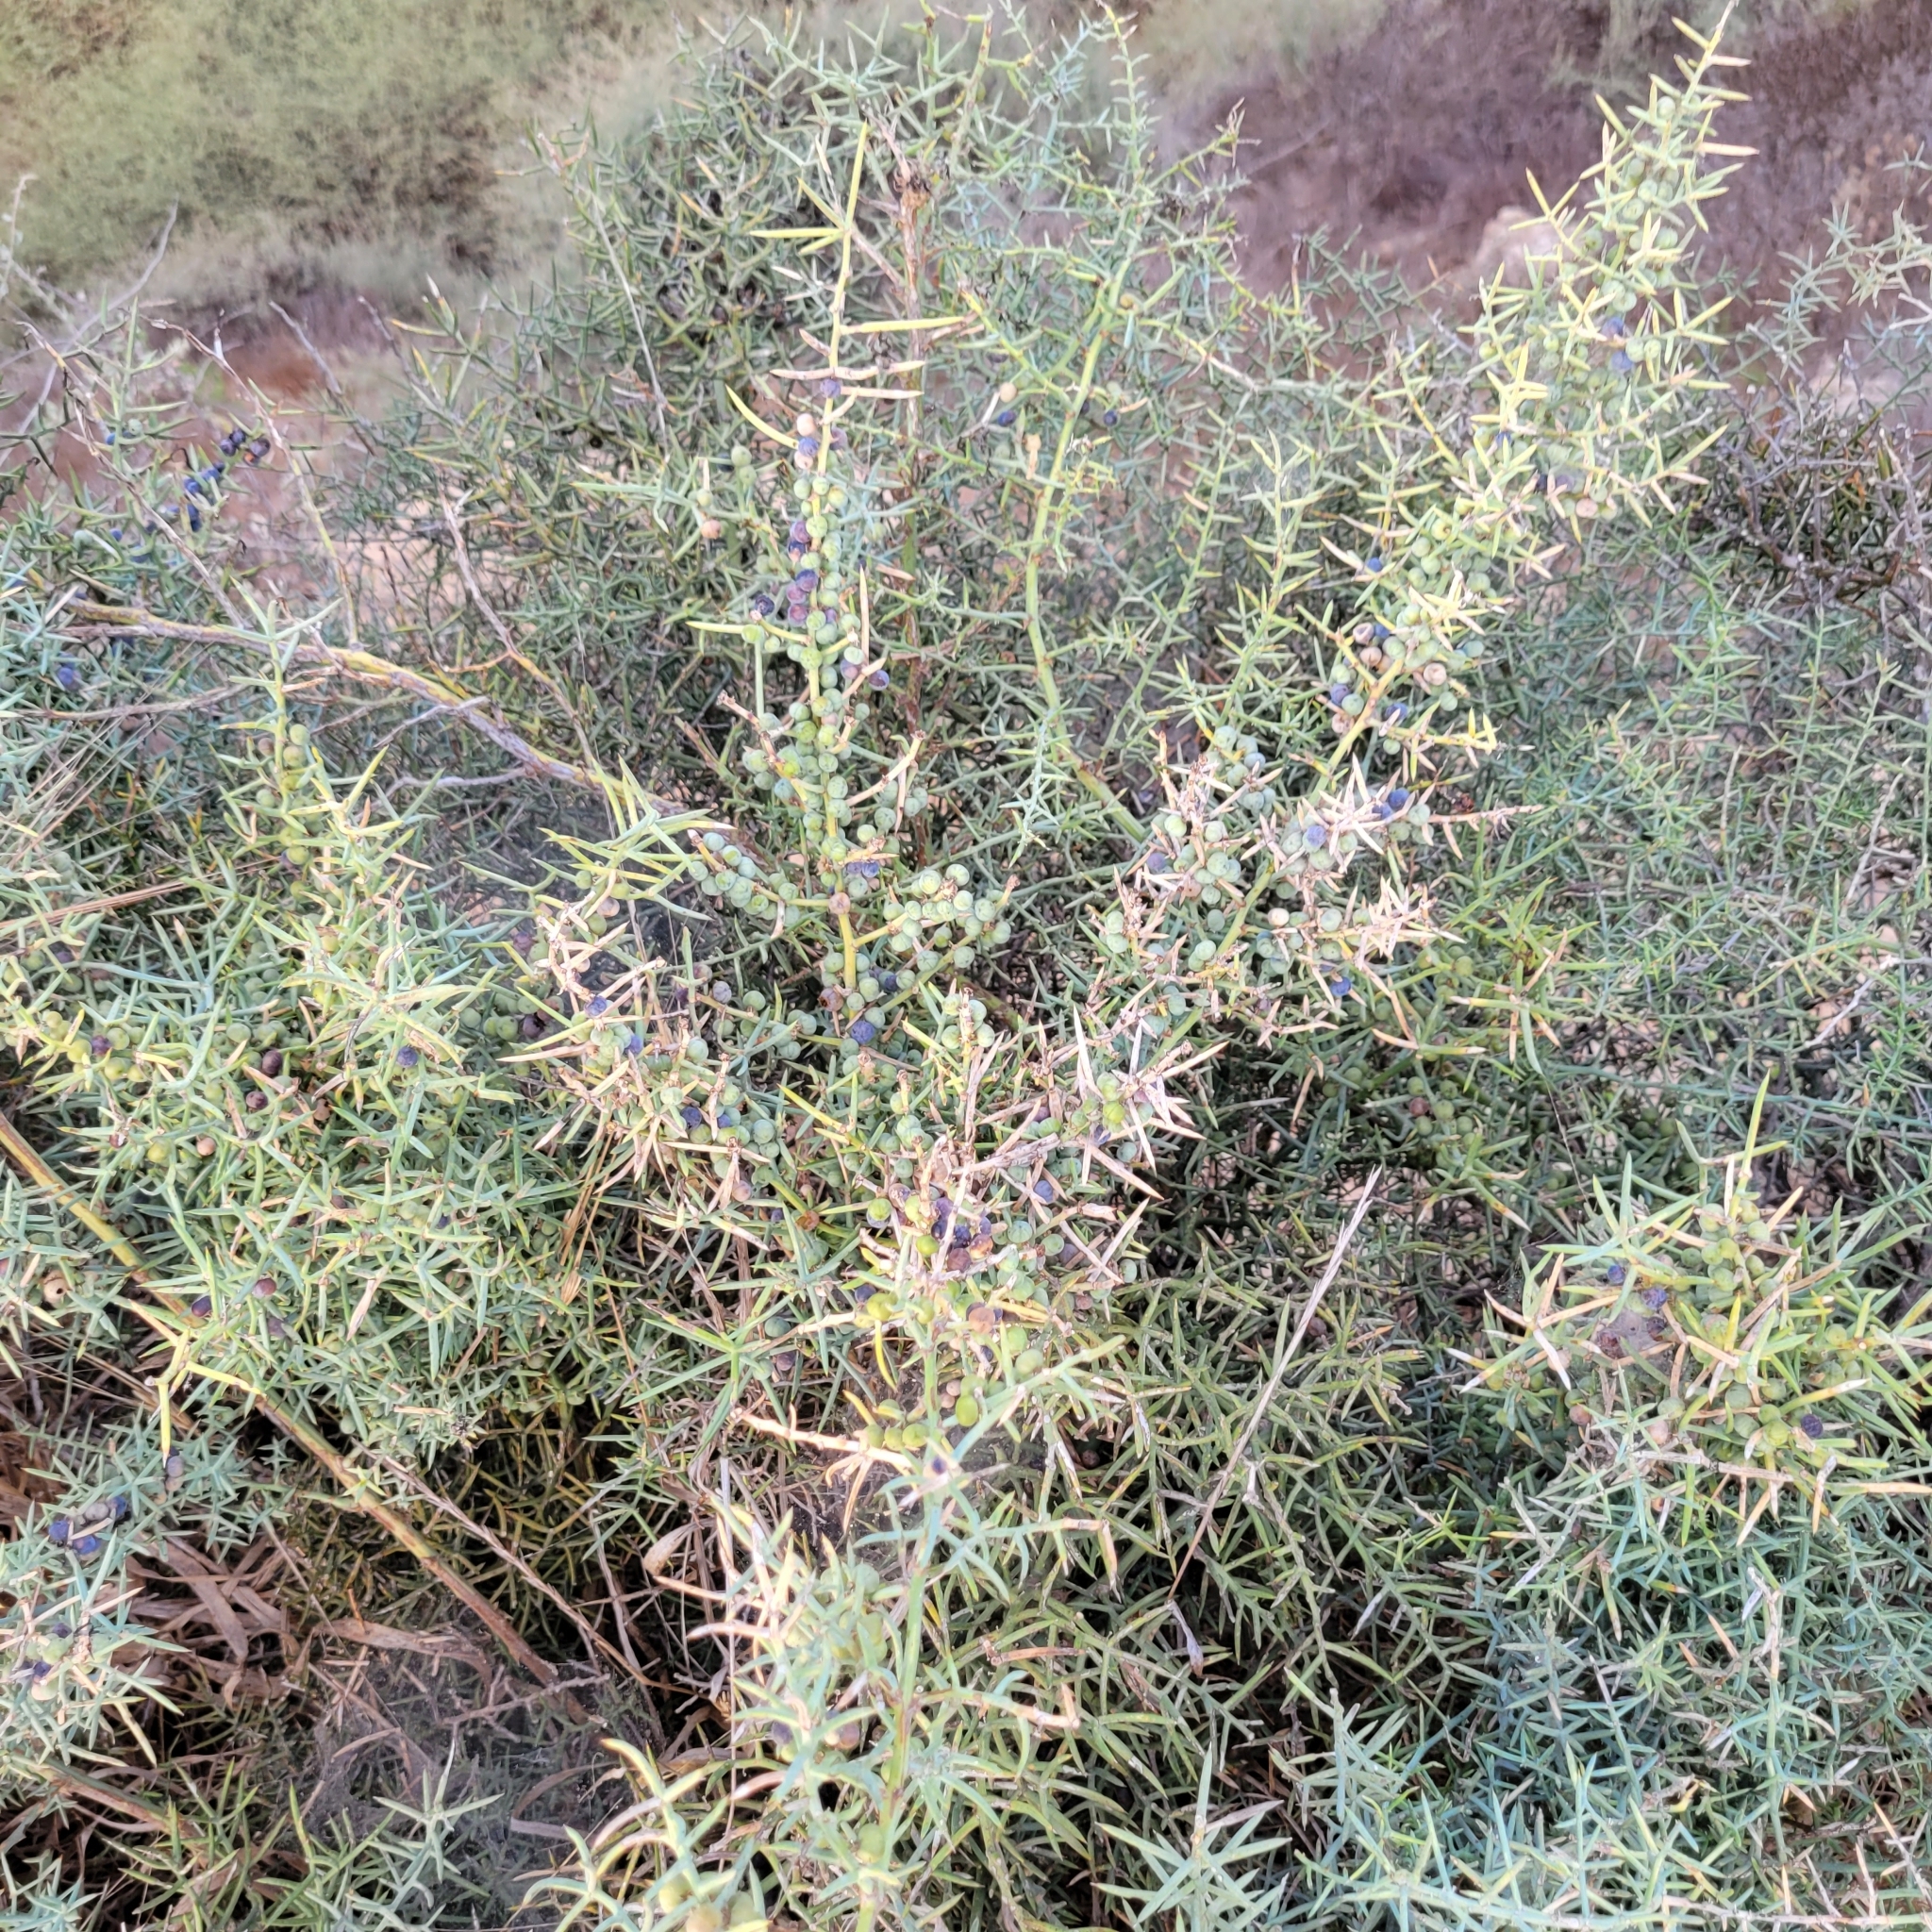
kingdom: Plantae
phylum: Tracheophyta
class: Liliopsida
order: Asparagales
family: Asparagaceae
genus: Asparagus
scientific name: Asparagus horridus
